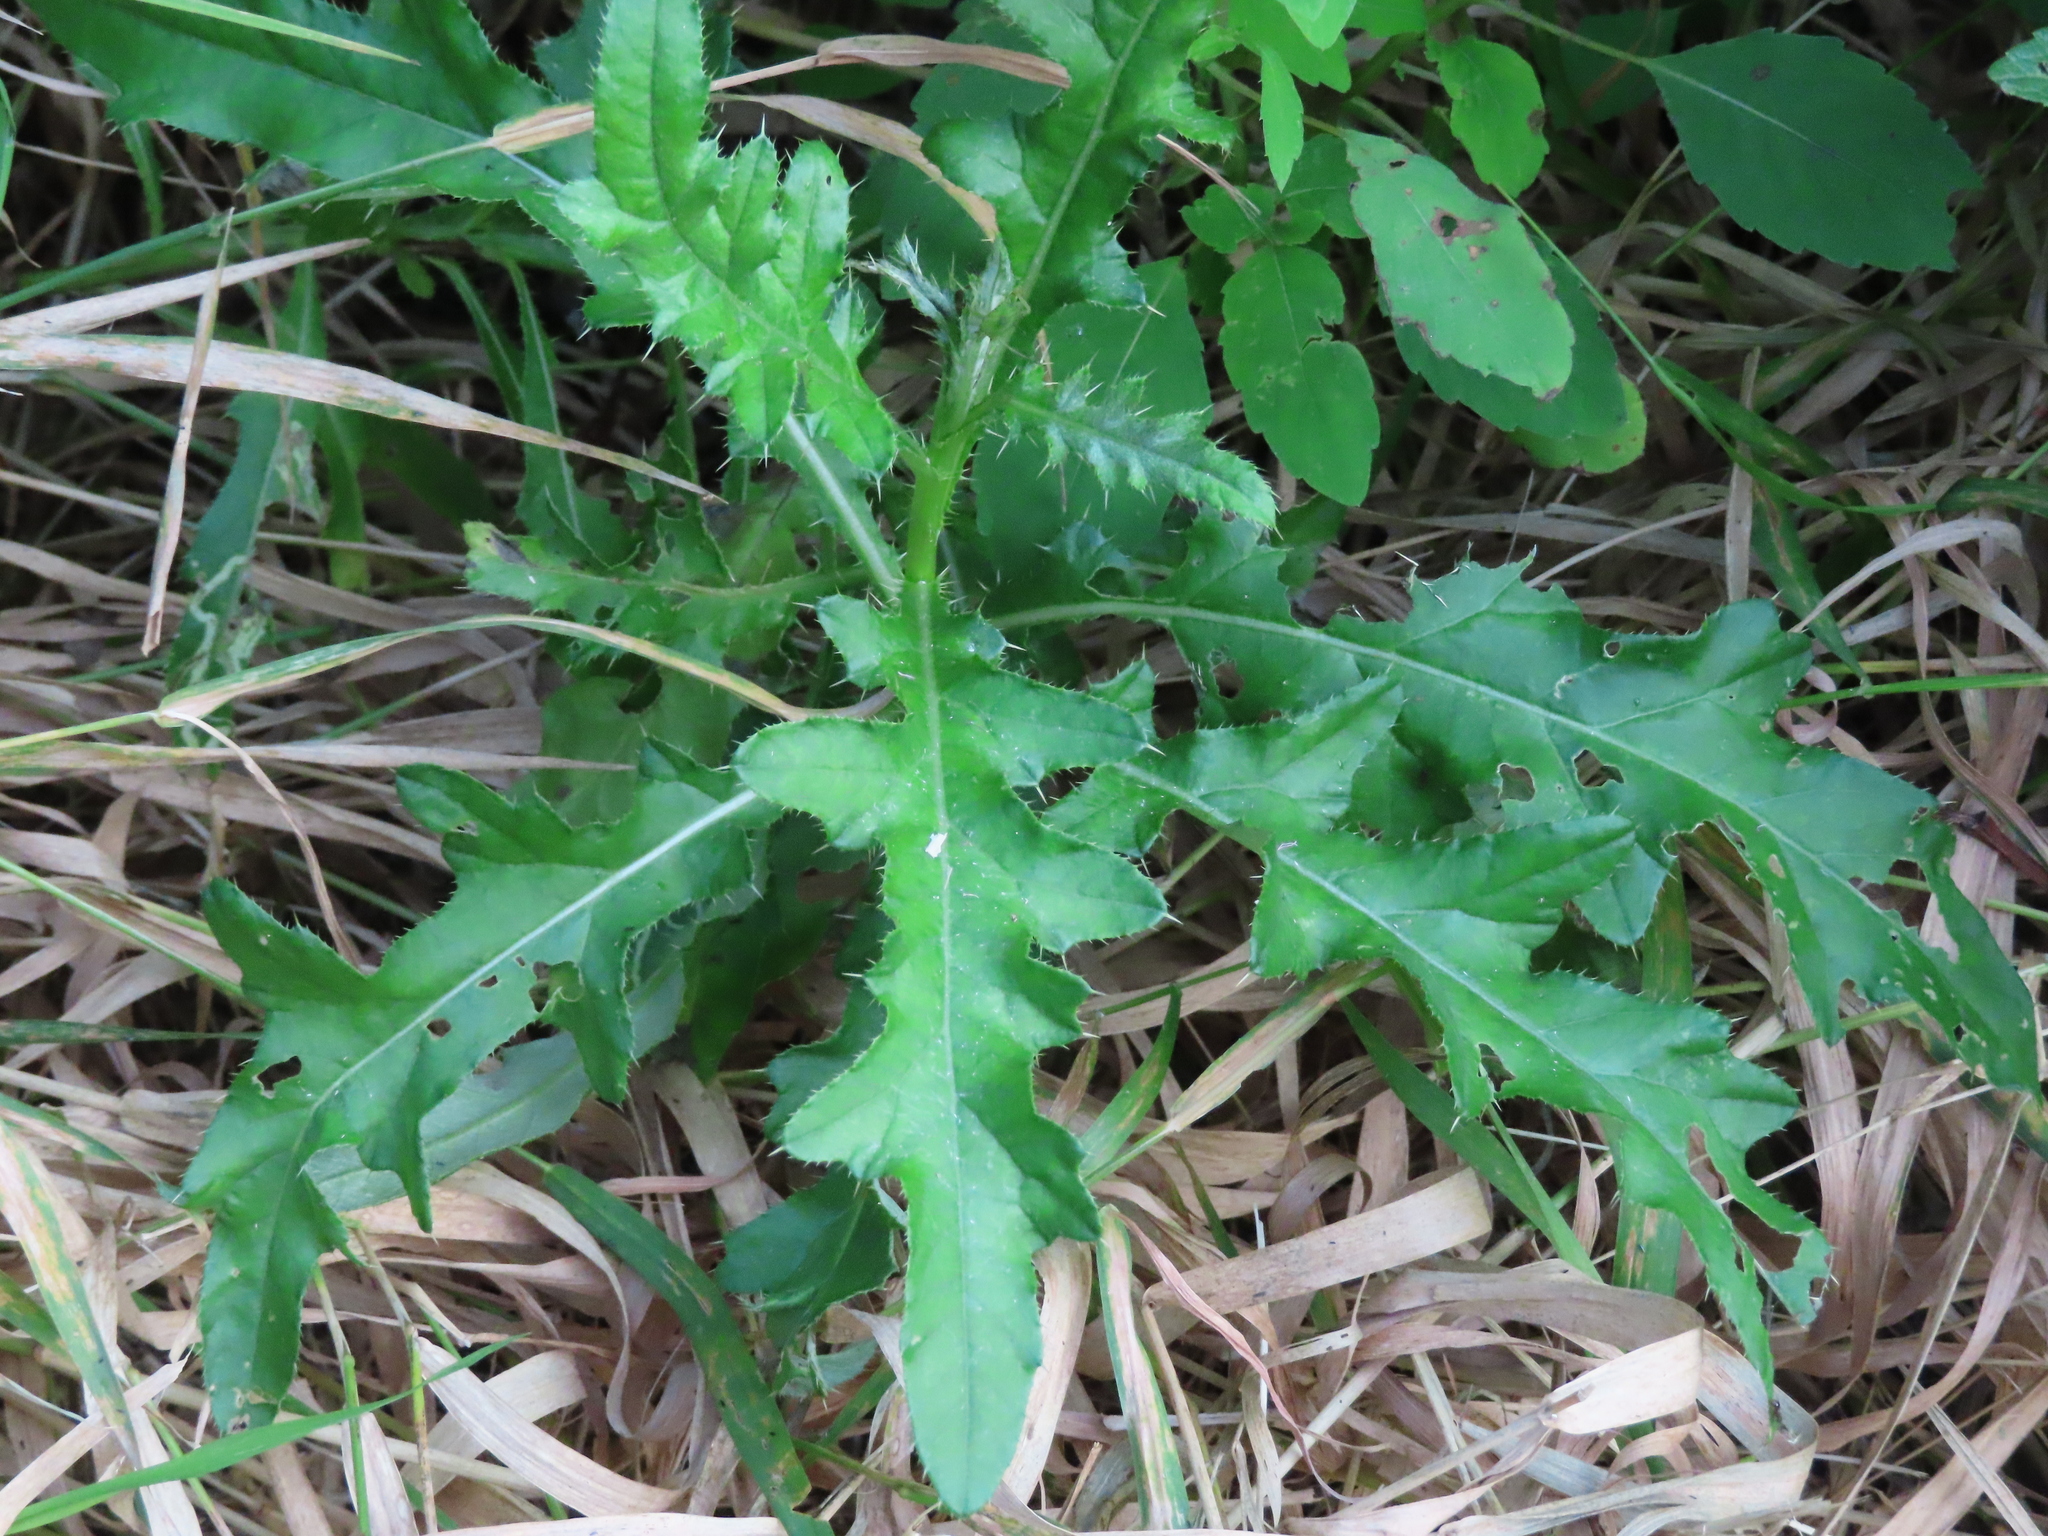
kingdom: Plantae
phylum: Tracheophyta
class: Magnoliopsida
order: Asterales
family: Asteraceae
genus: Cirsium
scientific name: Cirsium arvense
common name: Creeping thistle
